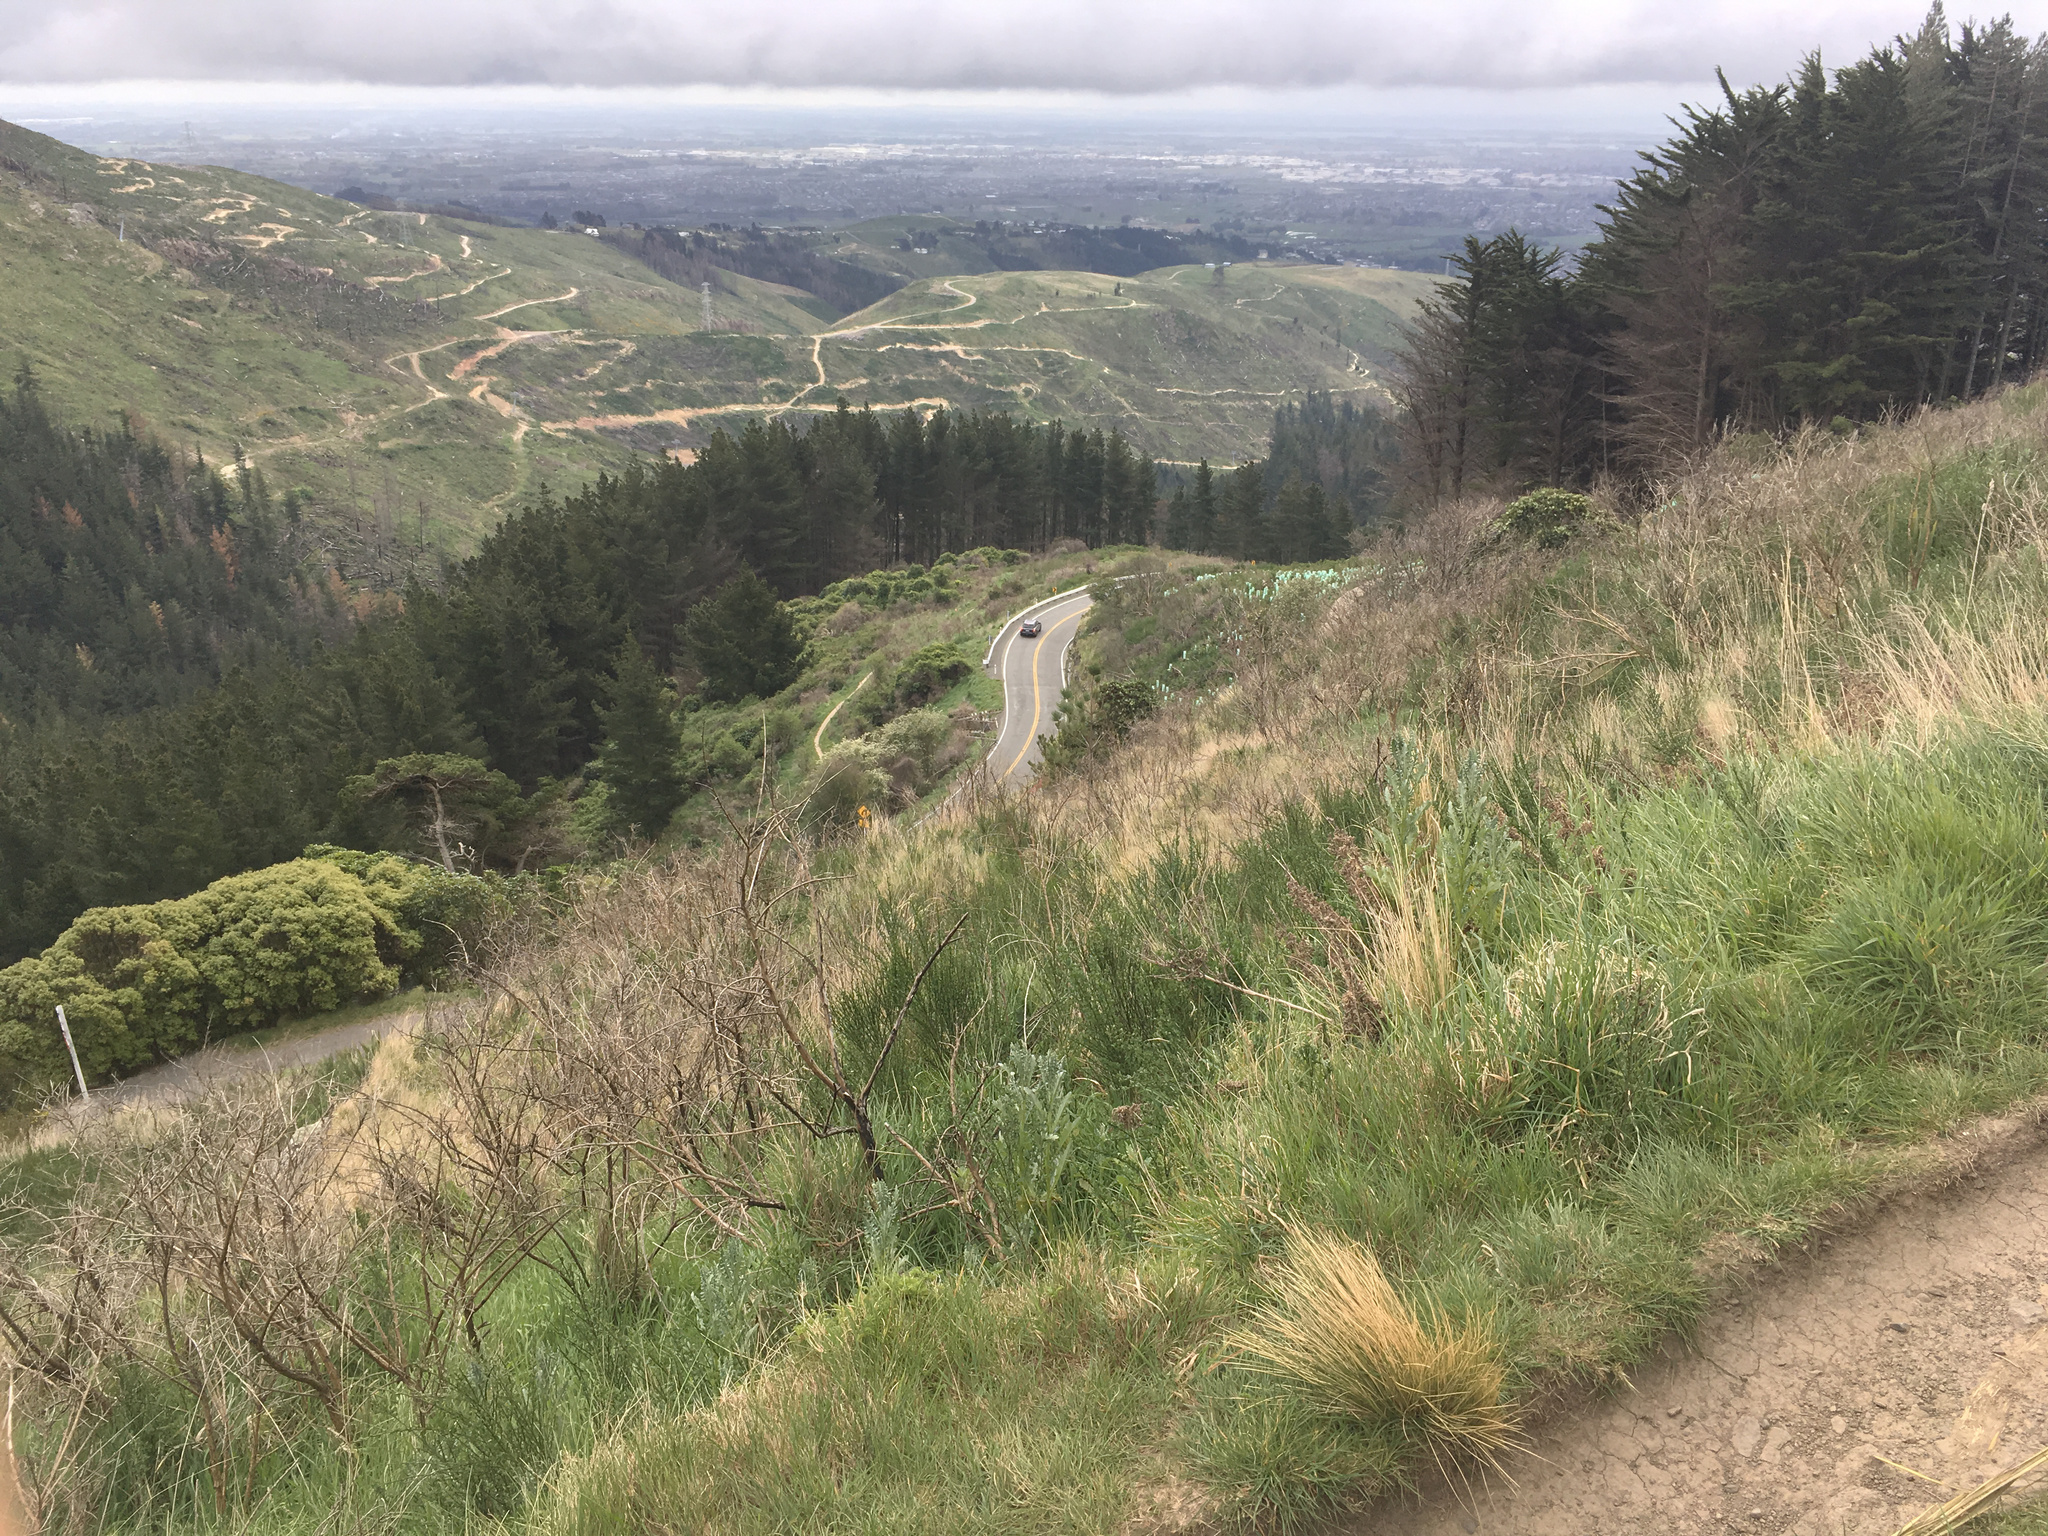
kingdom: Plantae
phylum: Tracheophyta
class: Magnoliopsida
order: Asterales
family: Asteraceae
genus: Senecio
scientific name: Senecio glomeratus
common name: Cutleaf burnweed
